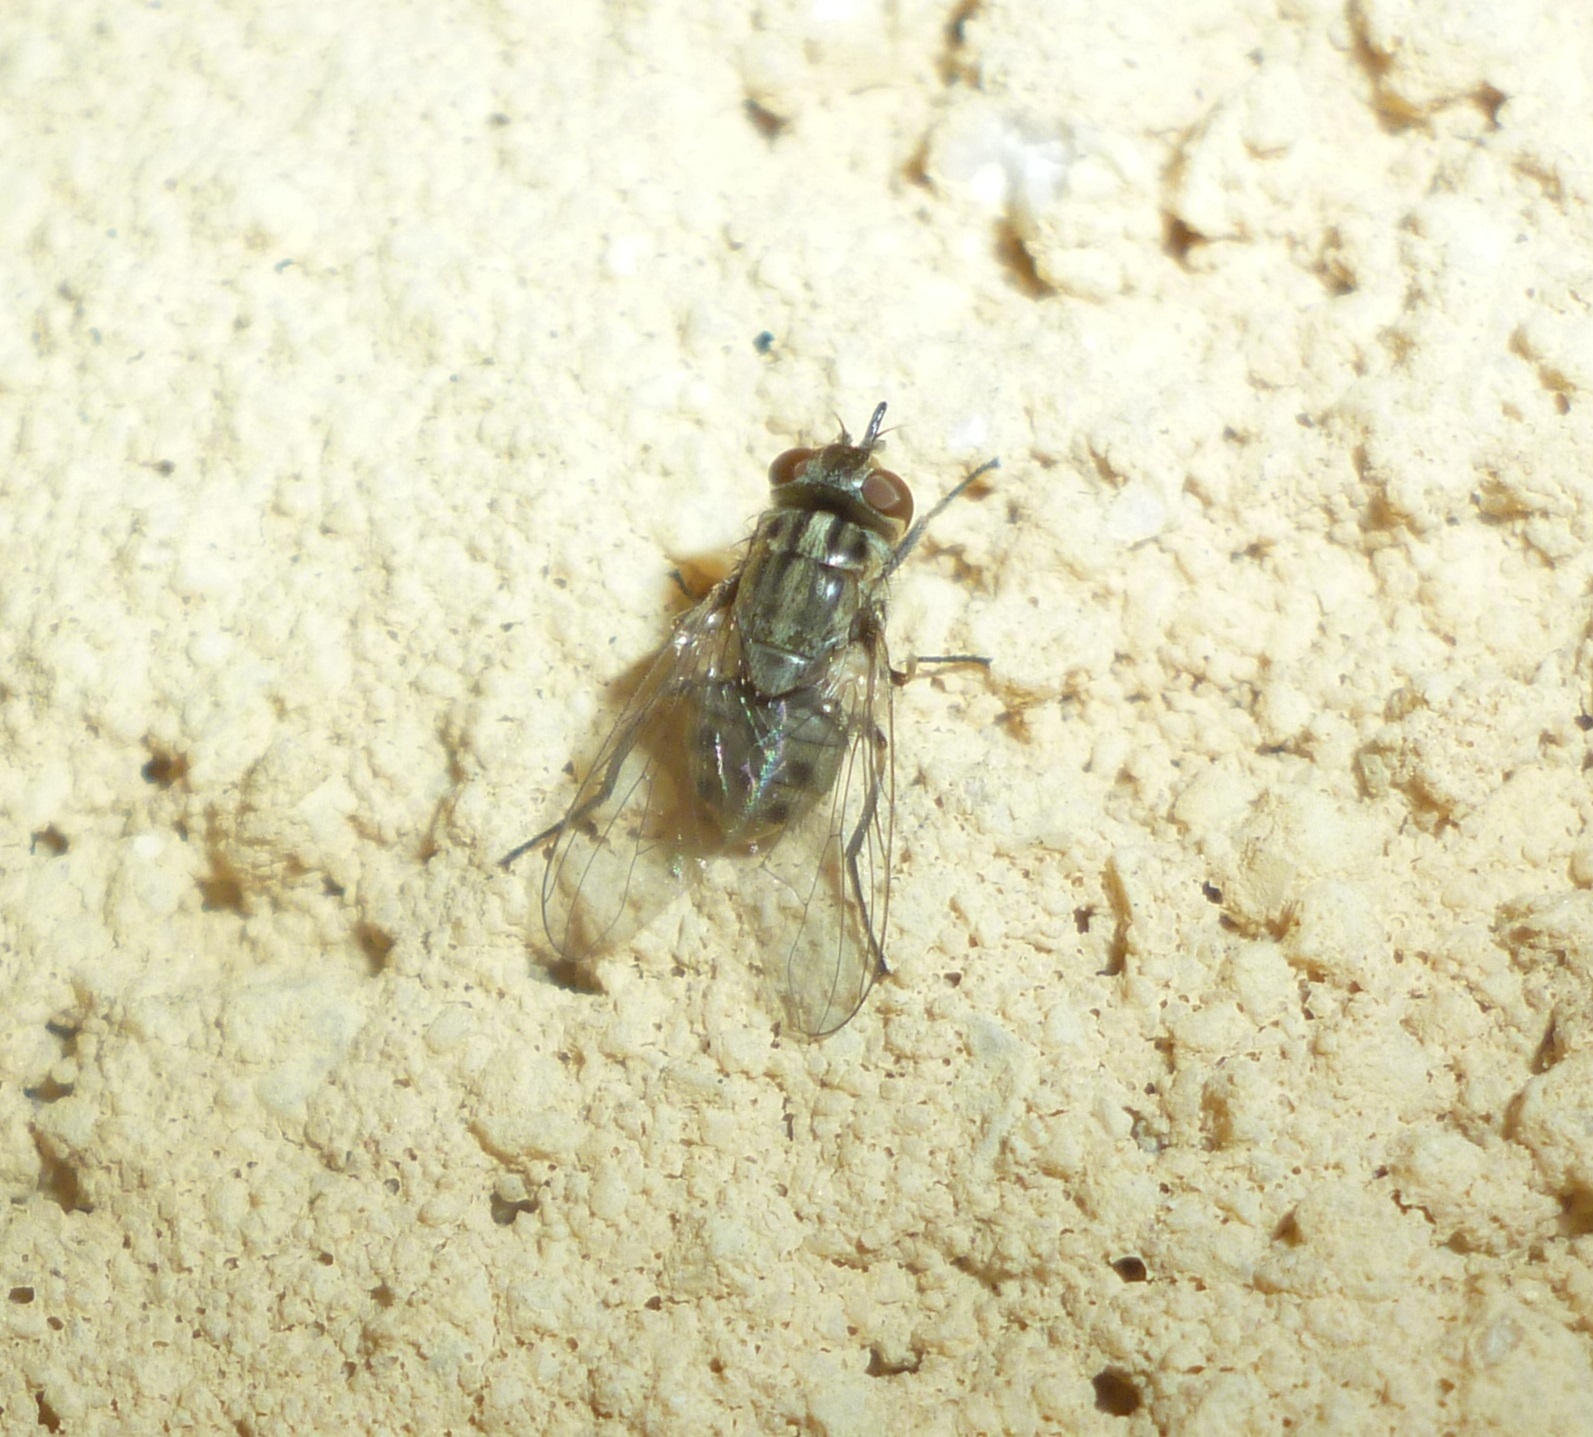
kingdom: Animalia
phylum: Arthropoda
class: Insecta
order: Diptera
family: Muscidae
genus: Stomoxys
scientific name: Stomoxys calcitrans
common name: Stable fly
